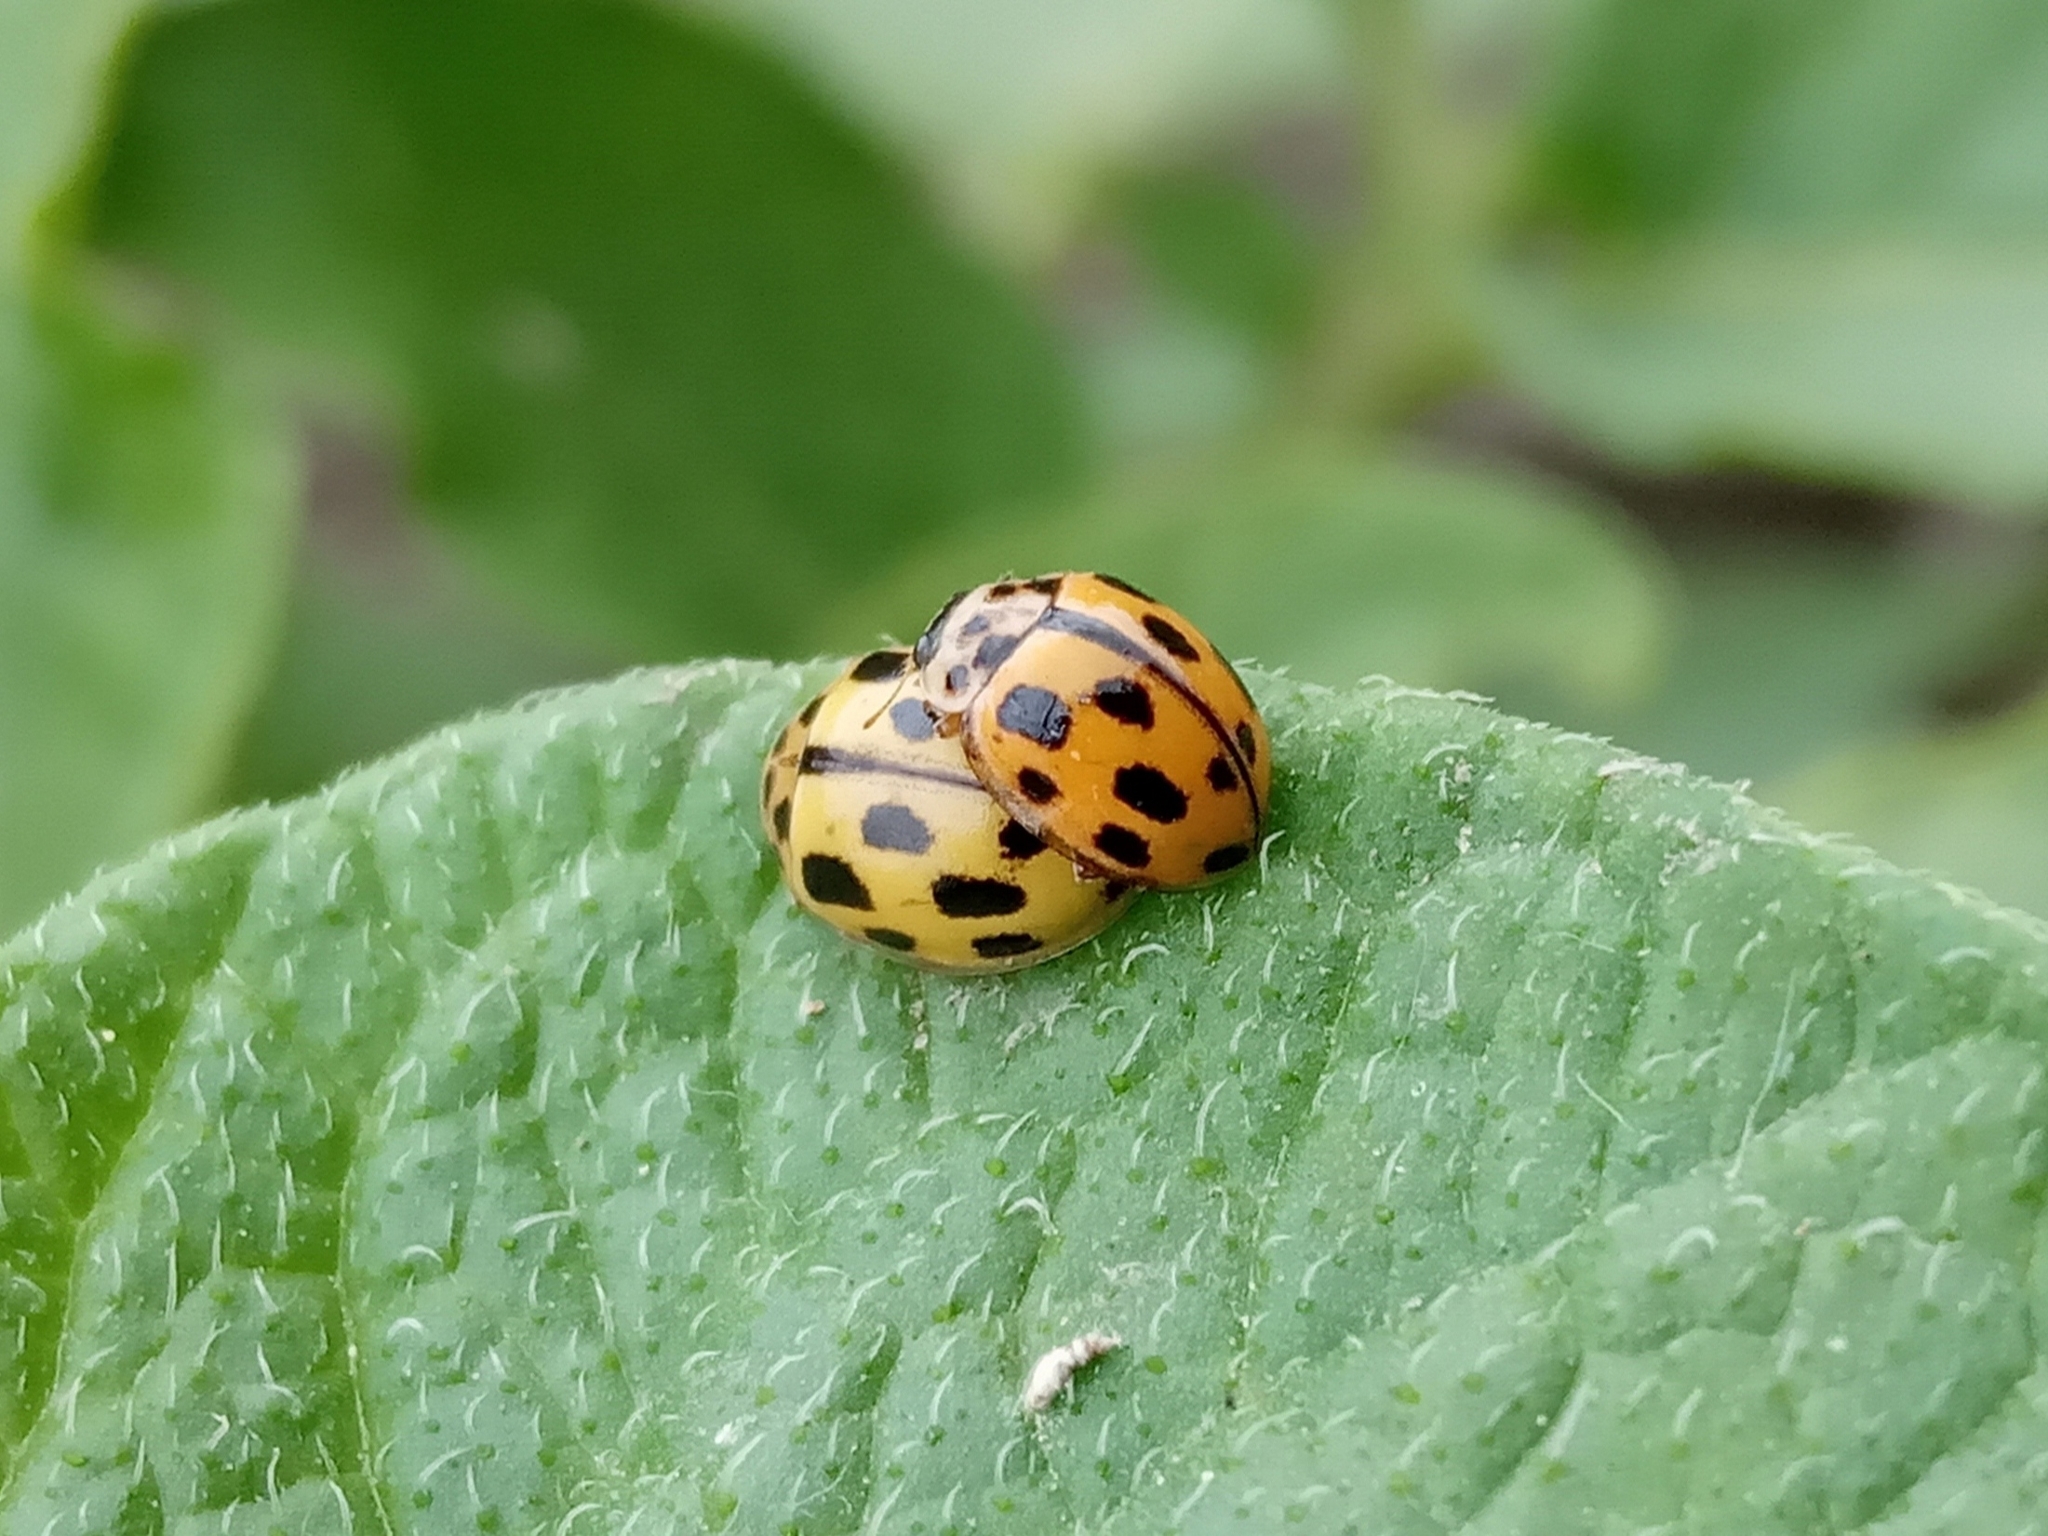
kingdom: Animalia
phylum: Arthropoda
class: Insecta
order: Coleoptera
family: Coccinellidae
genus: Propylaea
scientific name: Propylaea quatuordecimpunctata
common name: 14-spotted ladybird beetle
